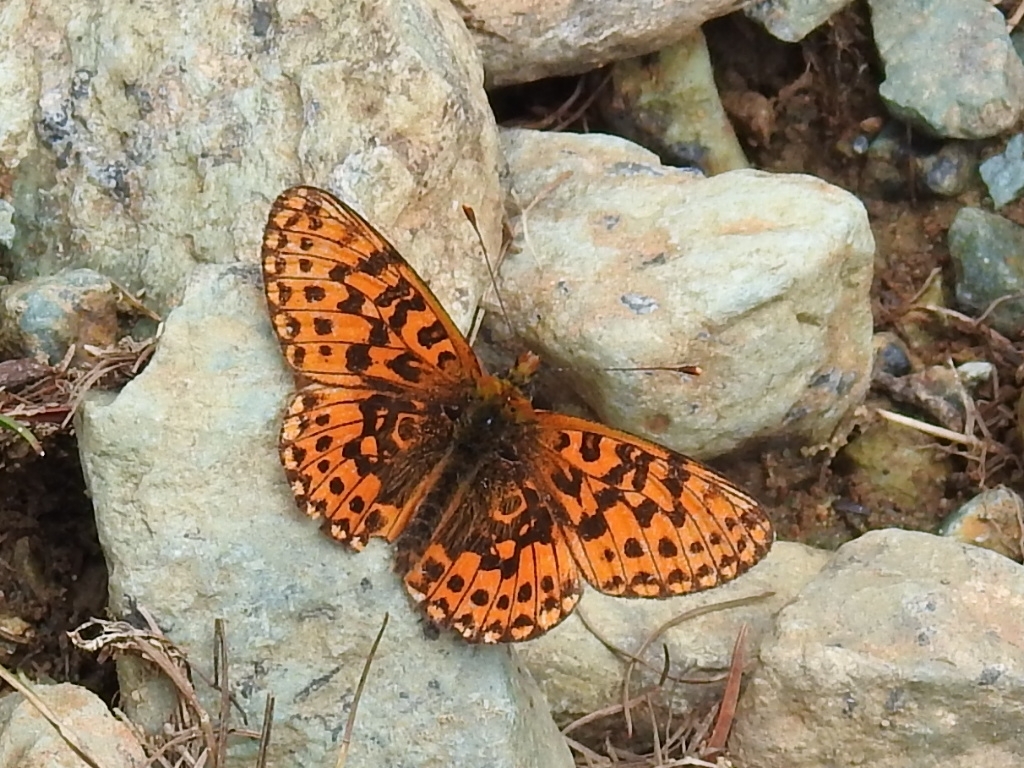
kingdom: Animalia
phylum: Arthropoda
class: Insecta
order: Lepidoptera
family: Nymphalidae
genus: Clossiana
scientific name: Clossiana euphrosyne
